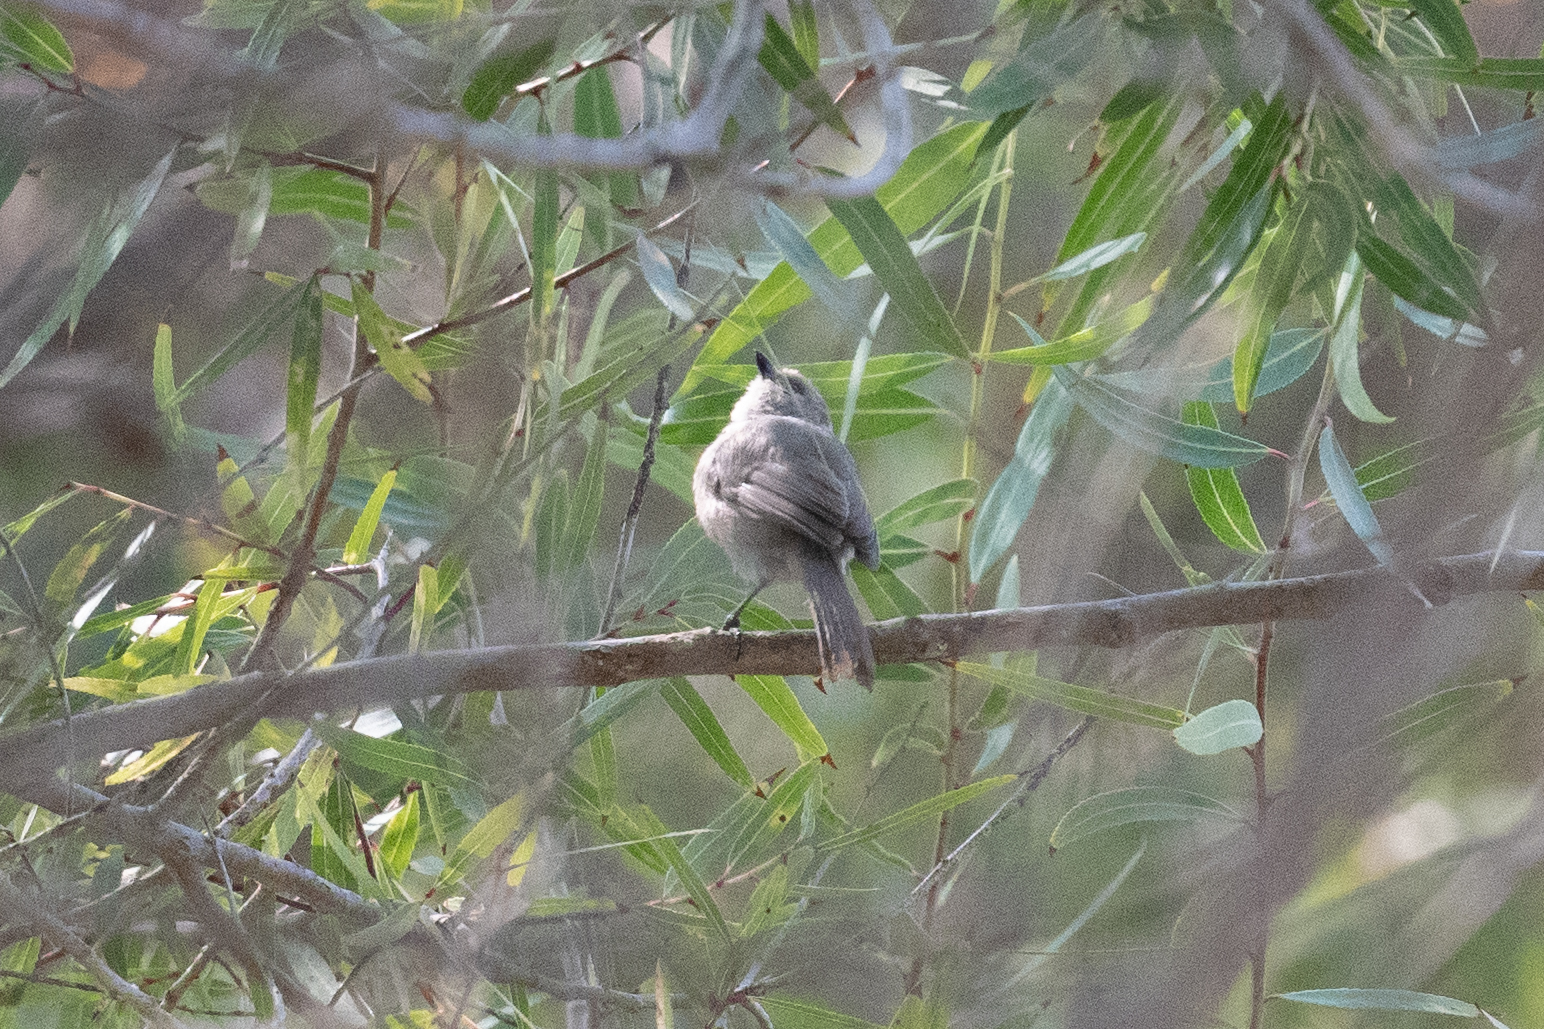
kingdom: Animalia
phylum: Chordata
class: Aves
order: Passeriformes
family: Aegithalidae
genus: Psaltriparus
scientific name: Psaltriparus minimus
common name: American bushtit
